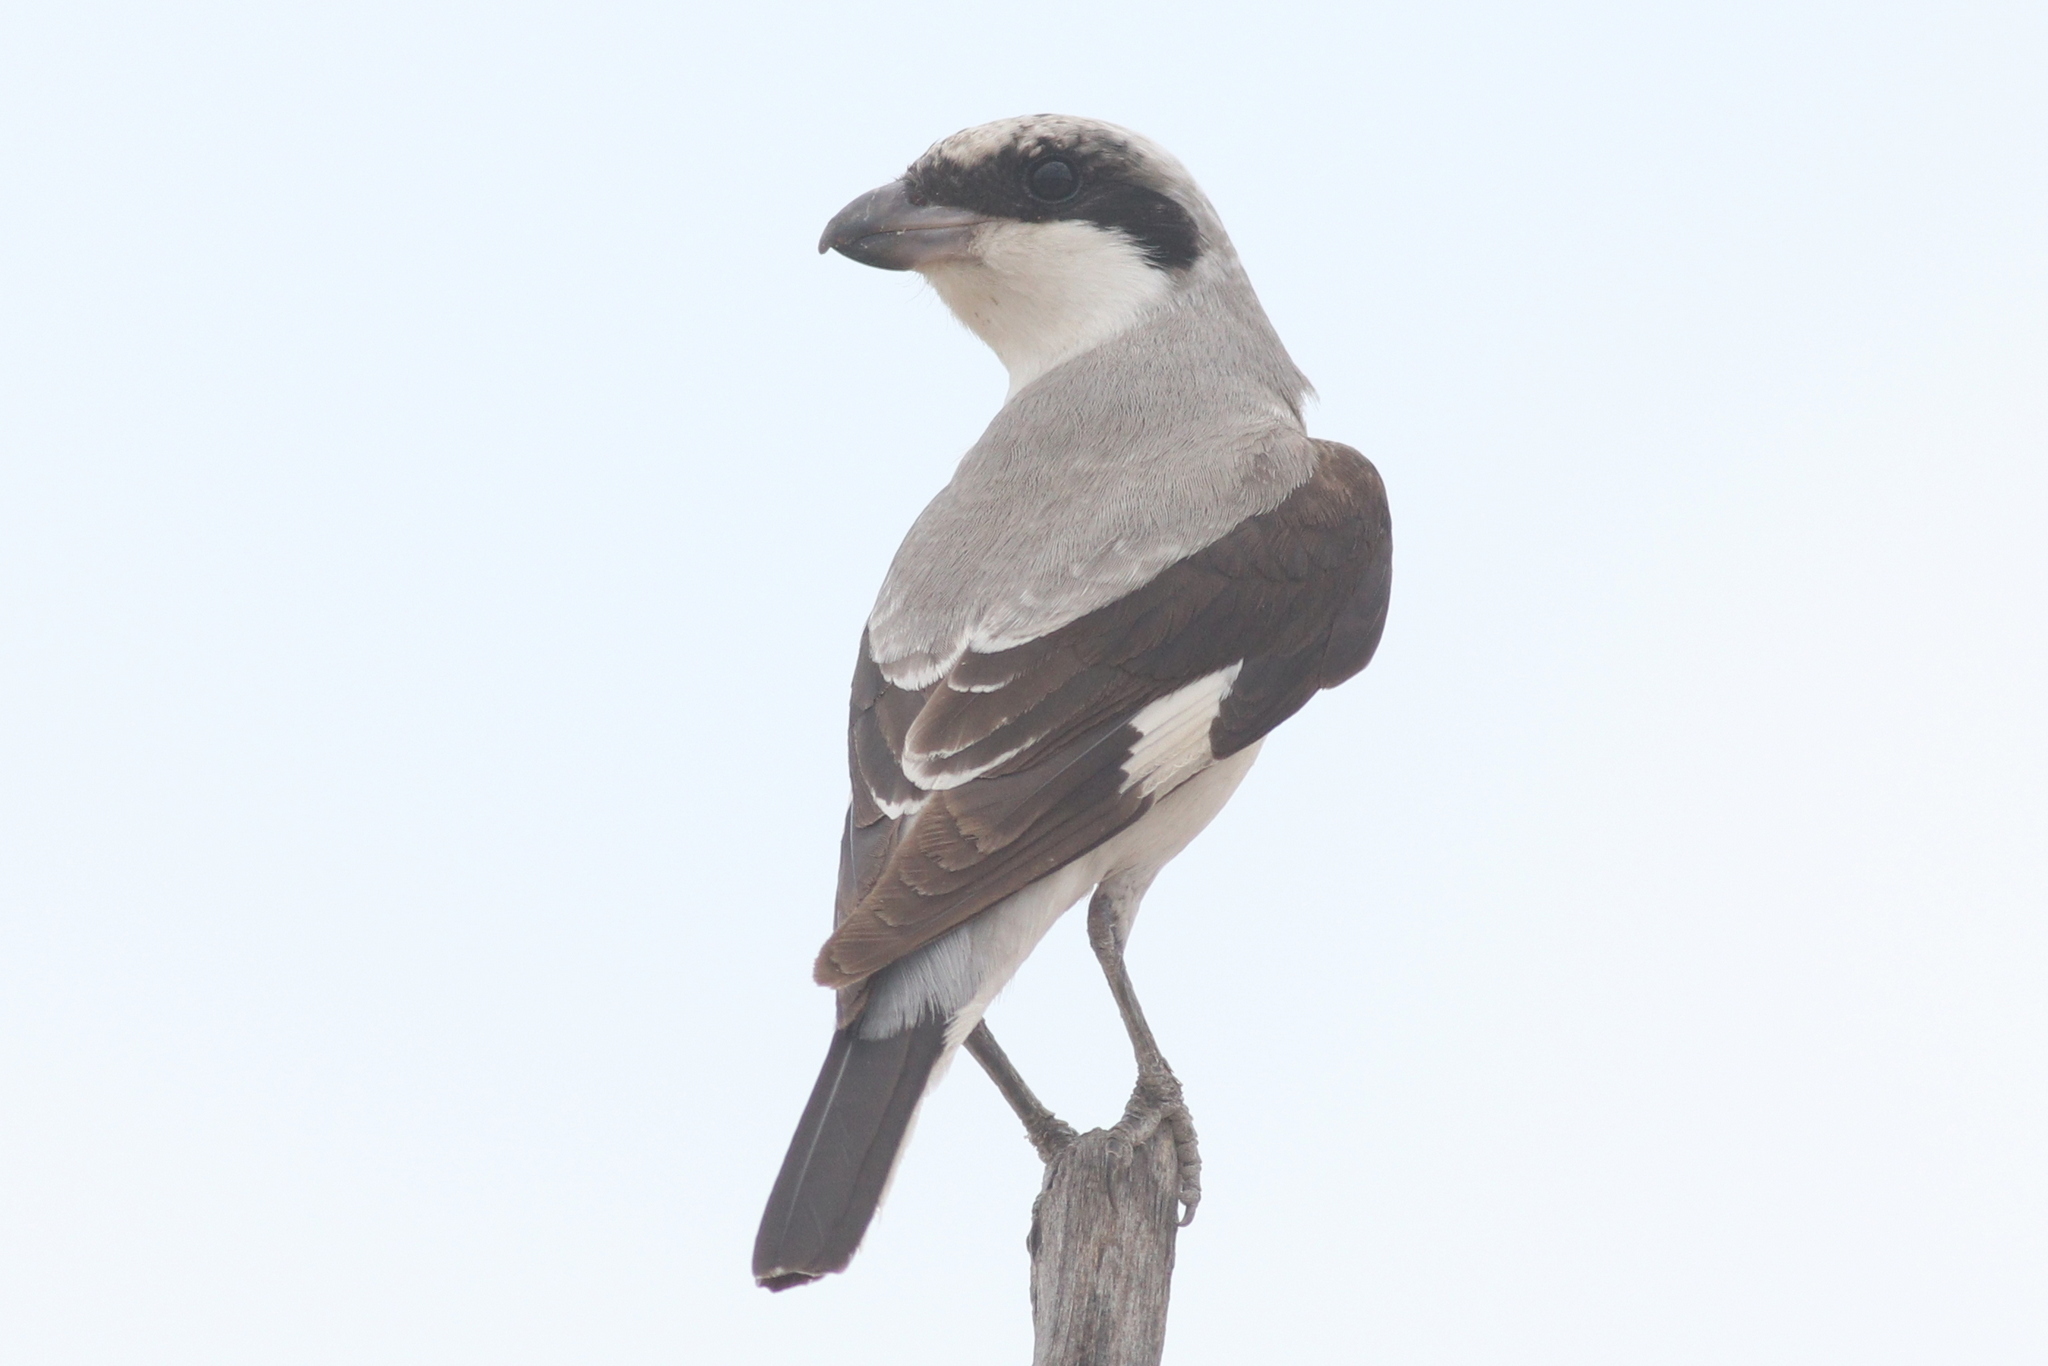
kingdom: Animalia
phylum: Chordata
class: Aves
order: Passeriformes
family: Laniidae
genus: Lanius
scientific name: Lanius minor
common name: Lesser grey shrike
